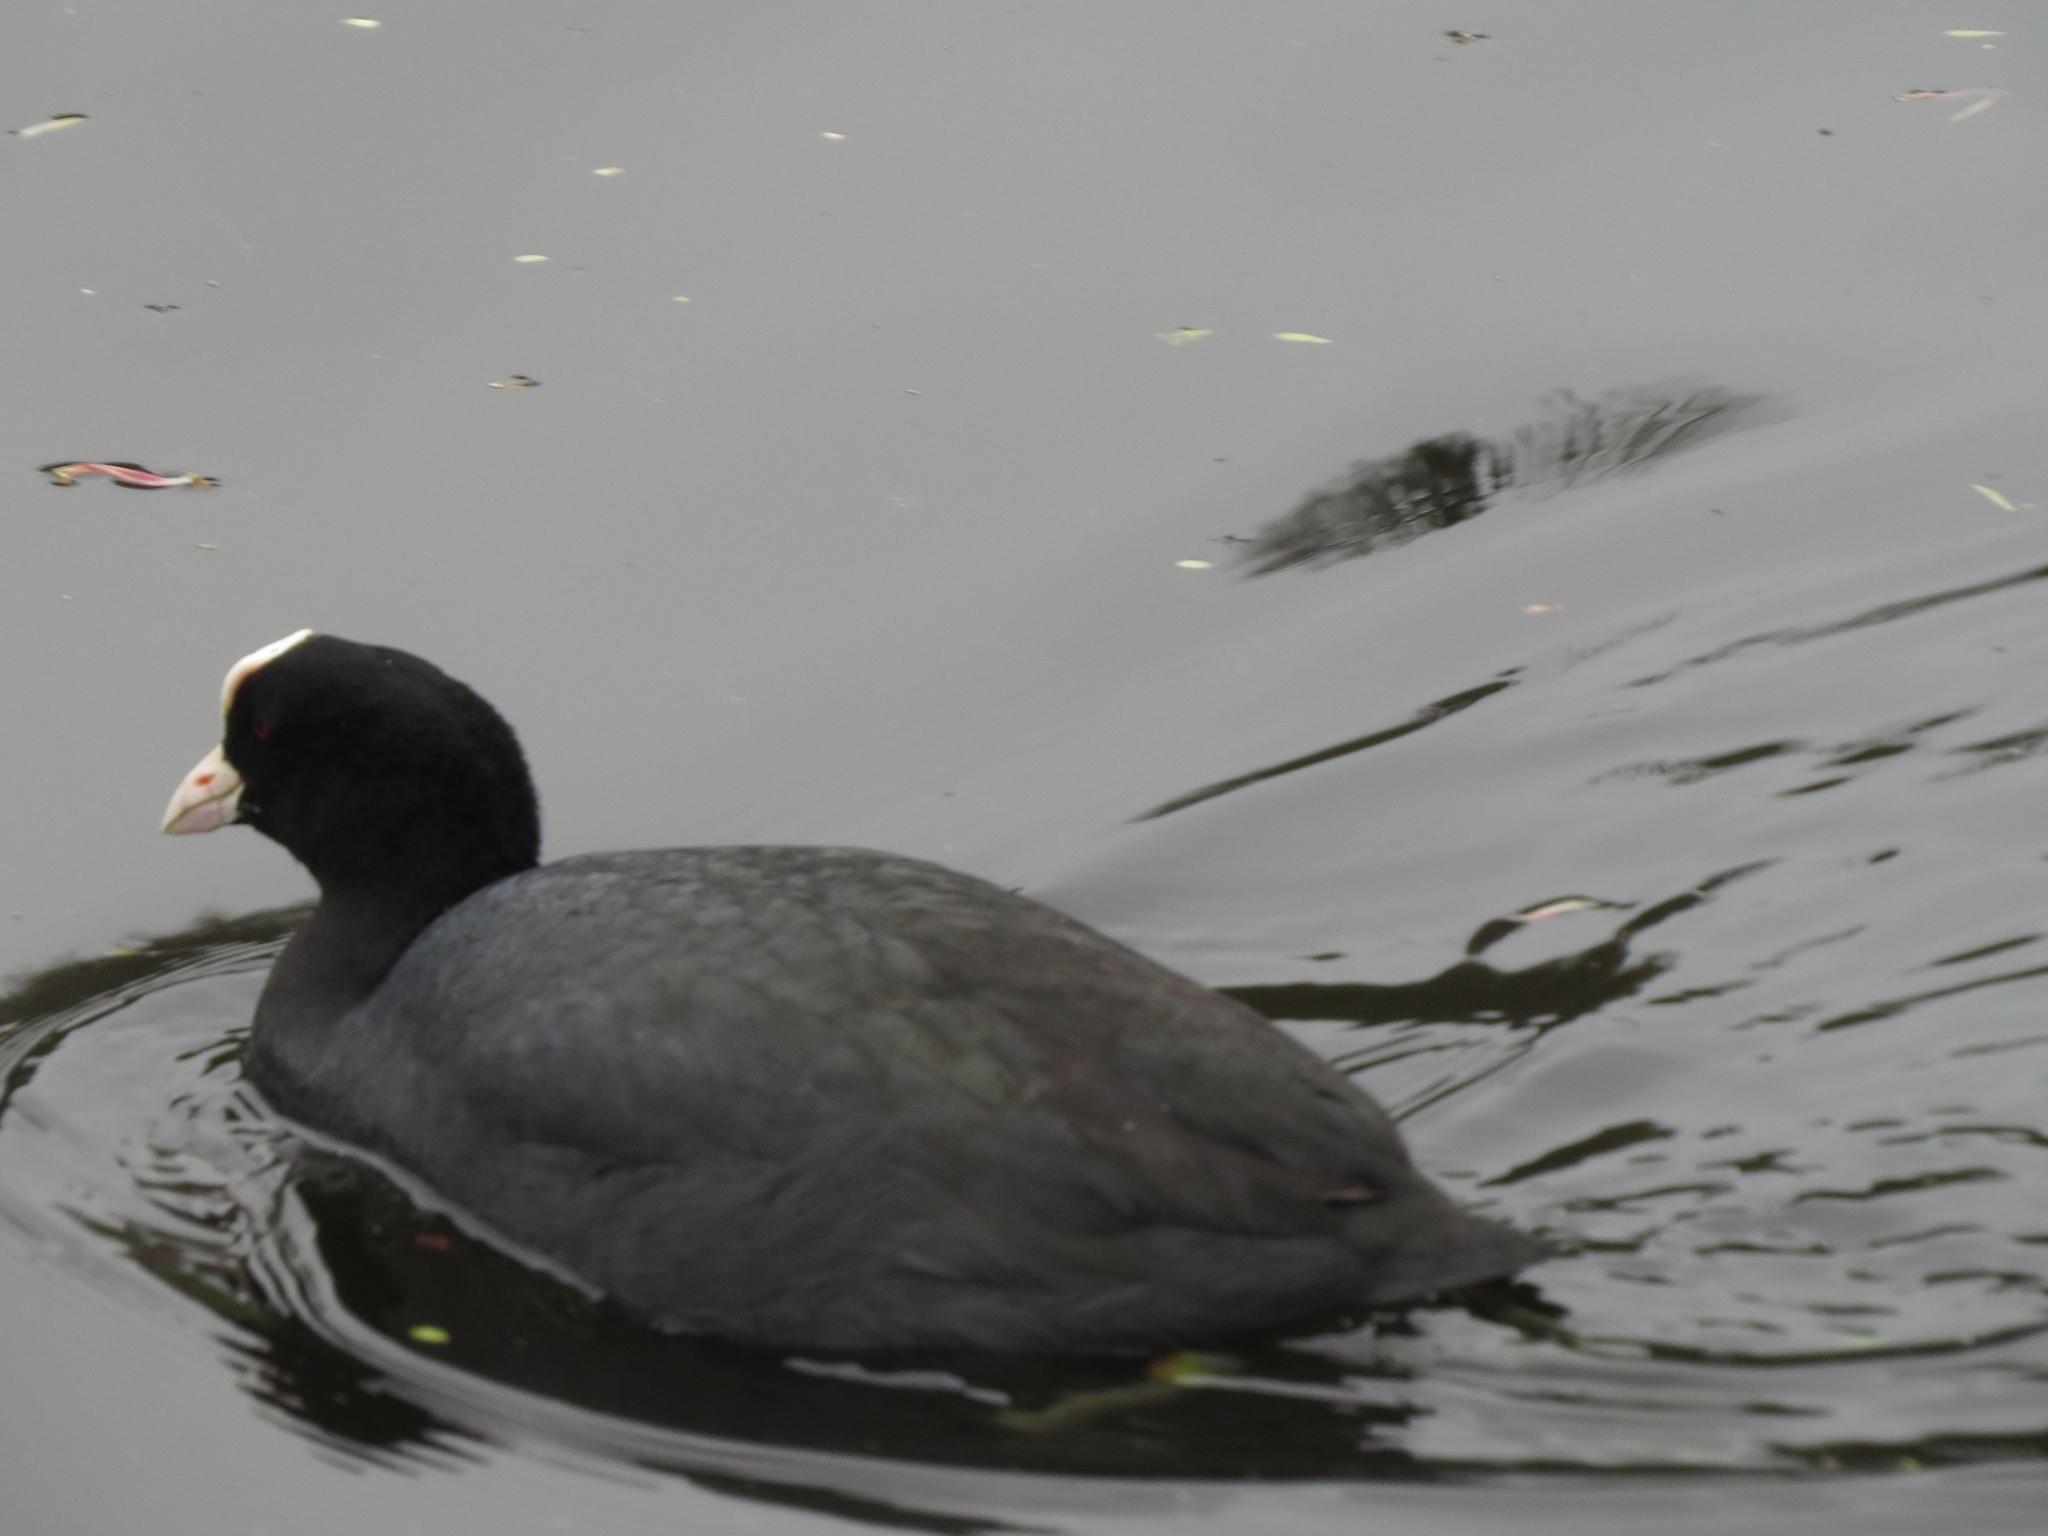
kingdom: Animalia
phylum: Chordata
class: Aves
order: Gruiformes
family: Rallidae
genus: Fulica
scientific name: Fulica atra
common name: Eurasian coot
